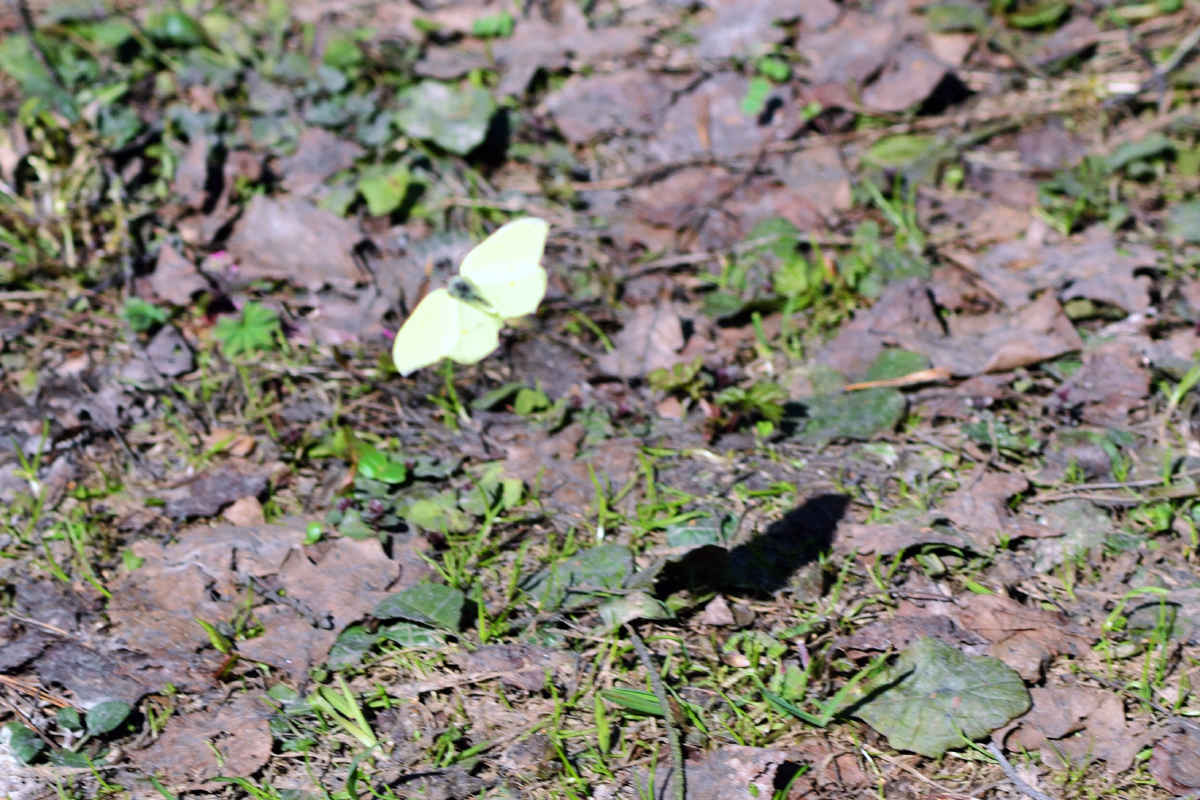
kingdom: Animalia
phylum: Arthropoda
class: Insecta
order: Lepidoptera
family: Pieridae
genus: Gonepteryx
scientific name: Gonepteryx rhamni
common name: Brimstone
